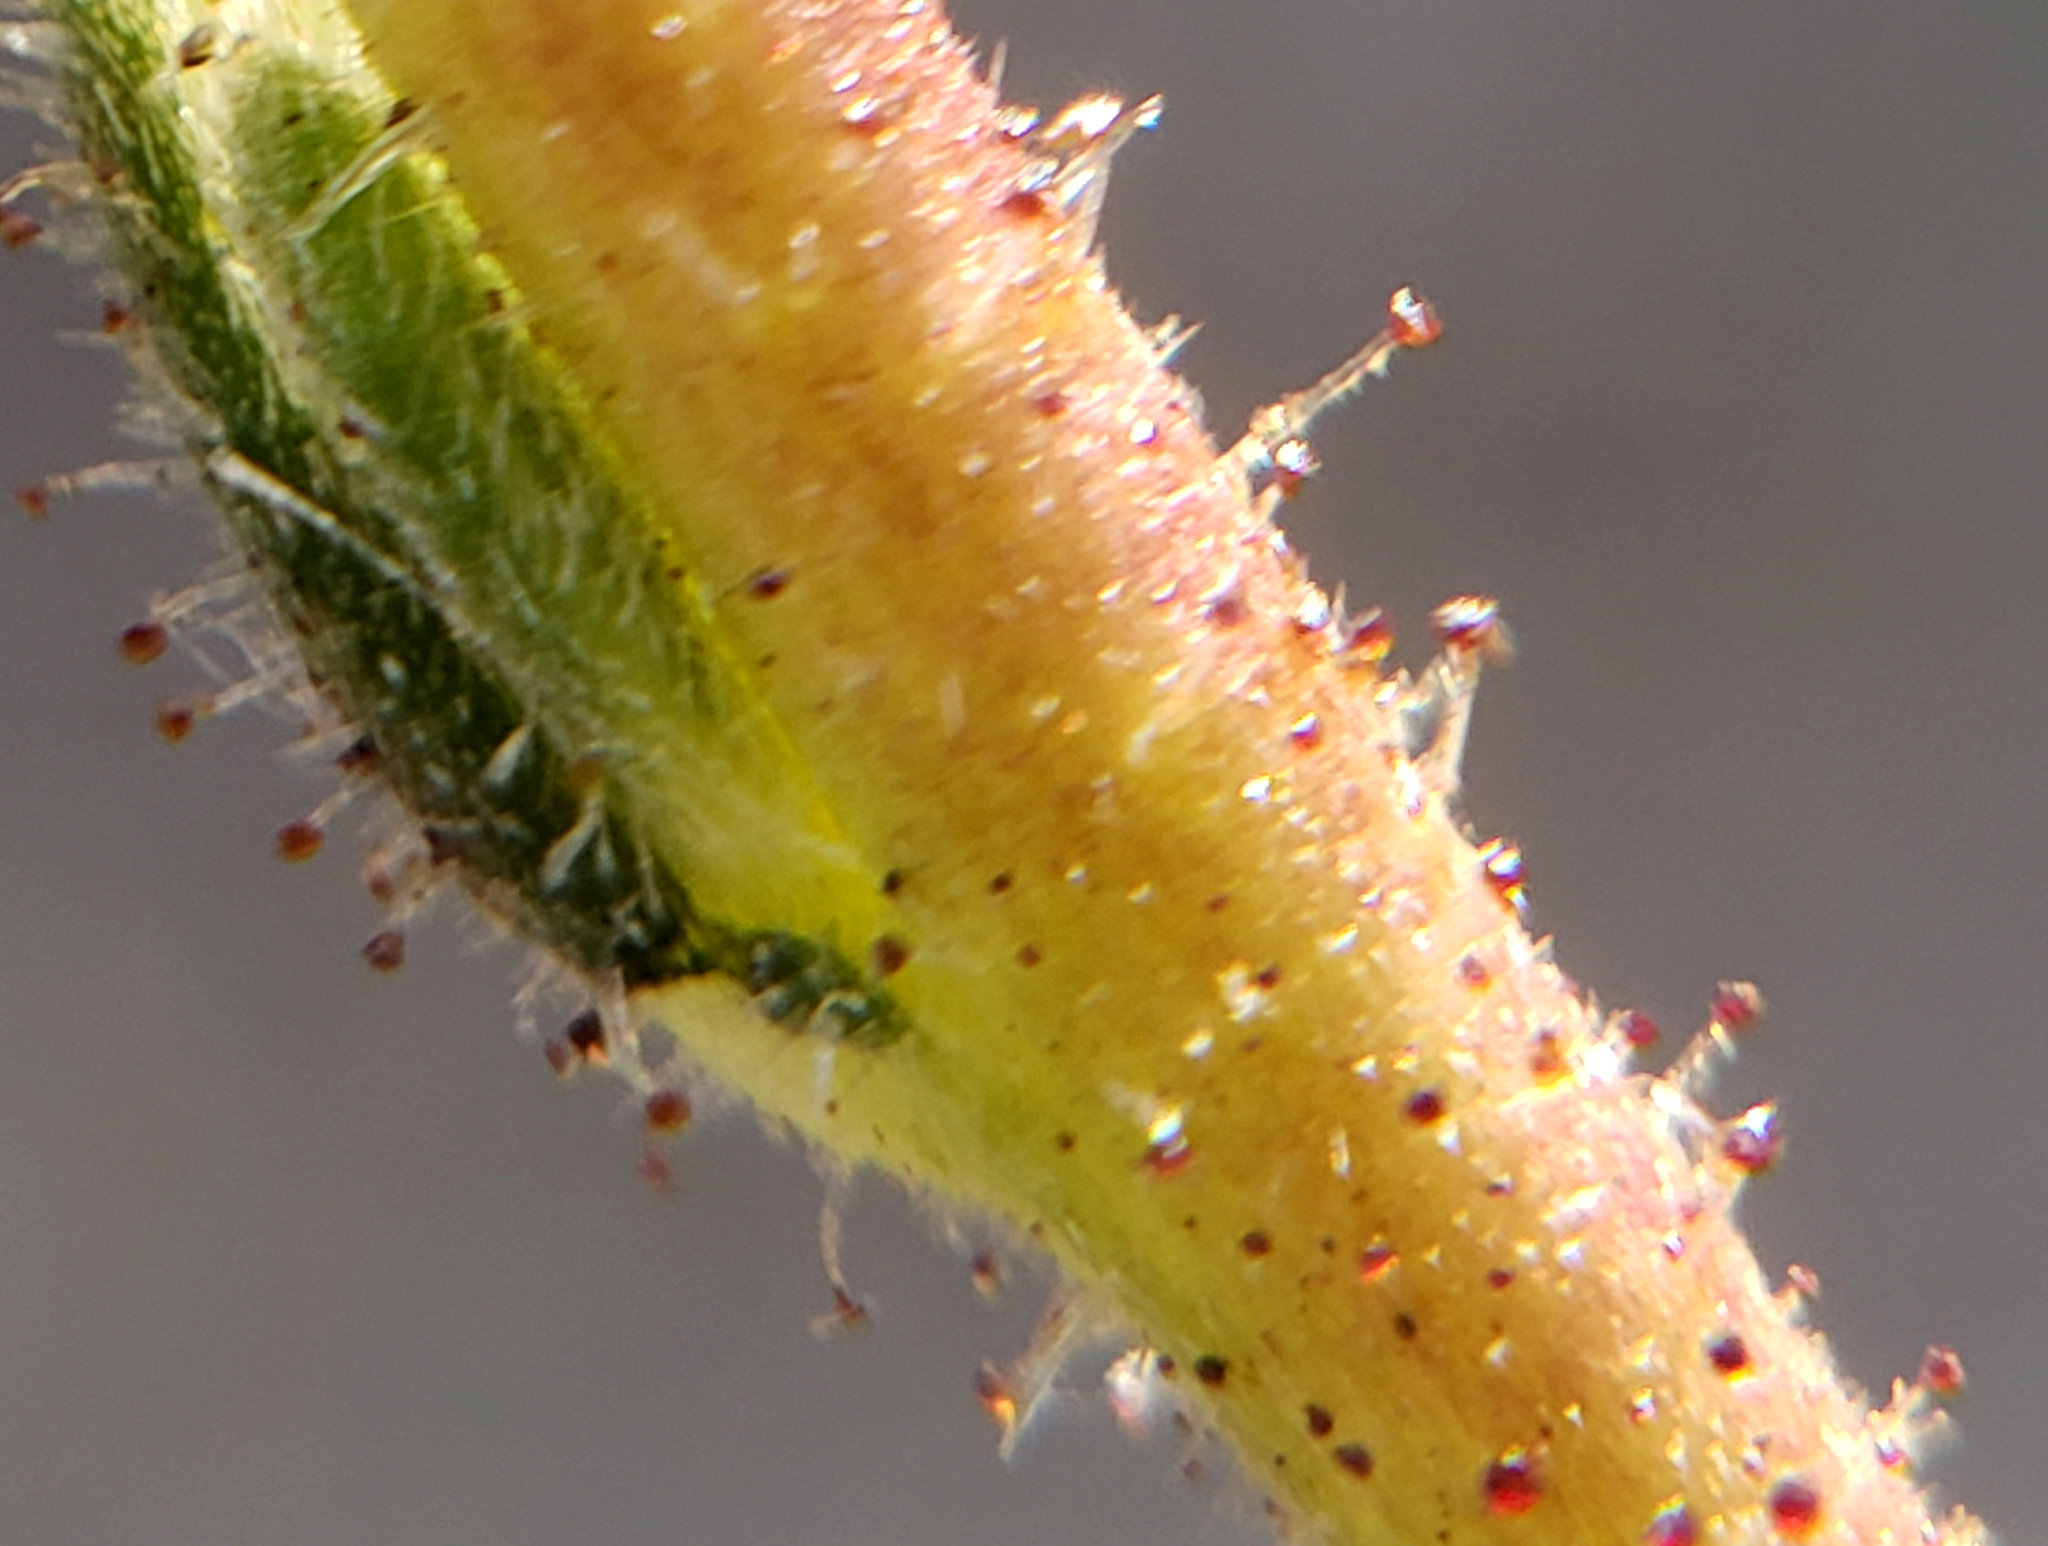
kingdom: Plantae
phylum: Tracheophyta
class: Magnoliopsida
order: Asterales
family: Asteraceae
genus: Madia
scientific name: Madia elegans
